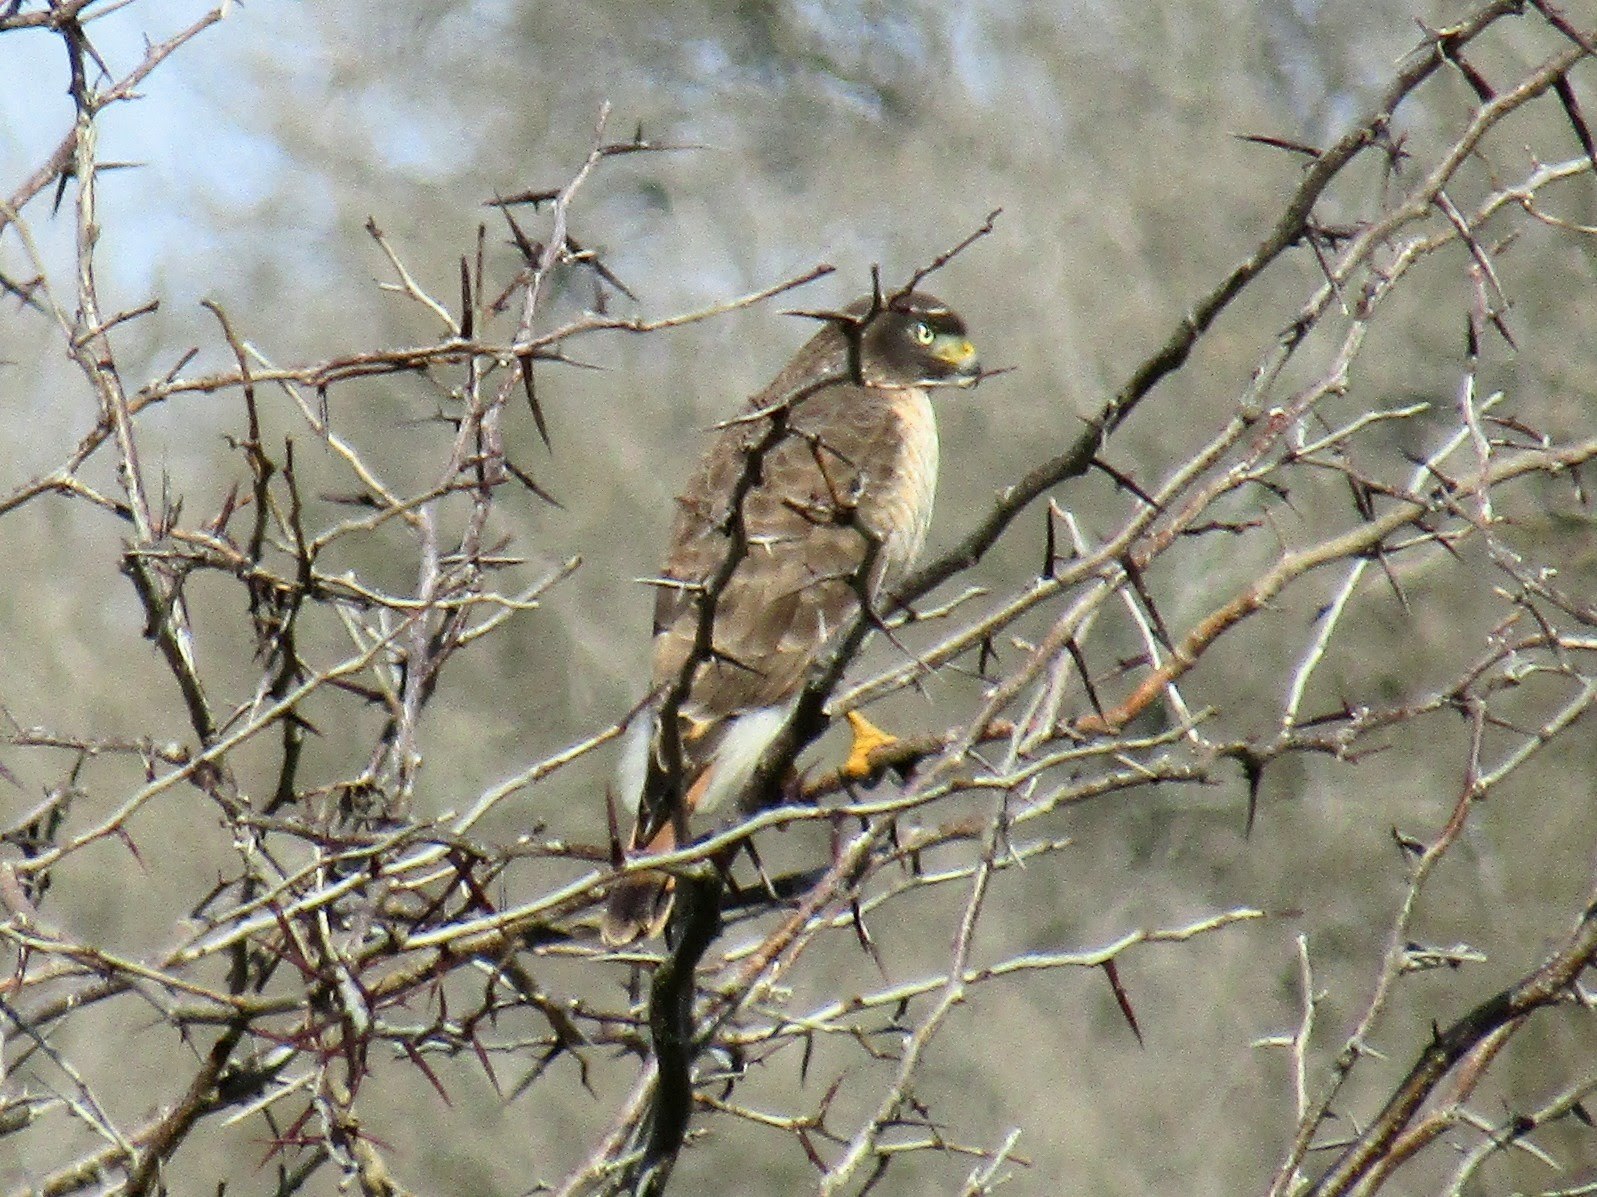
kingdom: Animalia
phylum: Chordata
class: Aves
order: Accipitriformes
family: Accipitridae
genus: Rupornis
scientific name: Rupornis magnirostris
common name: Roadside hawk
